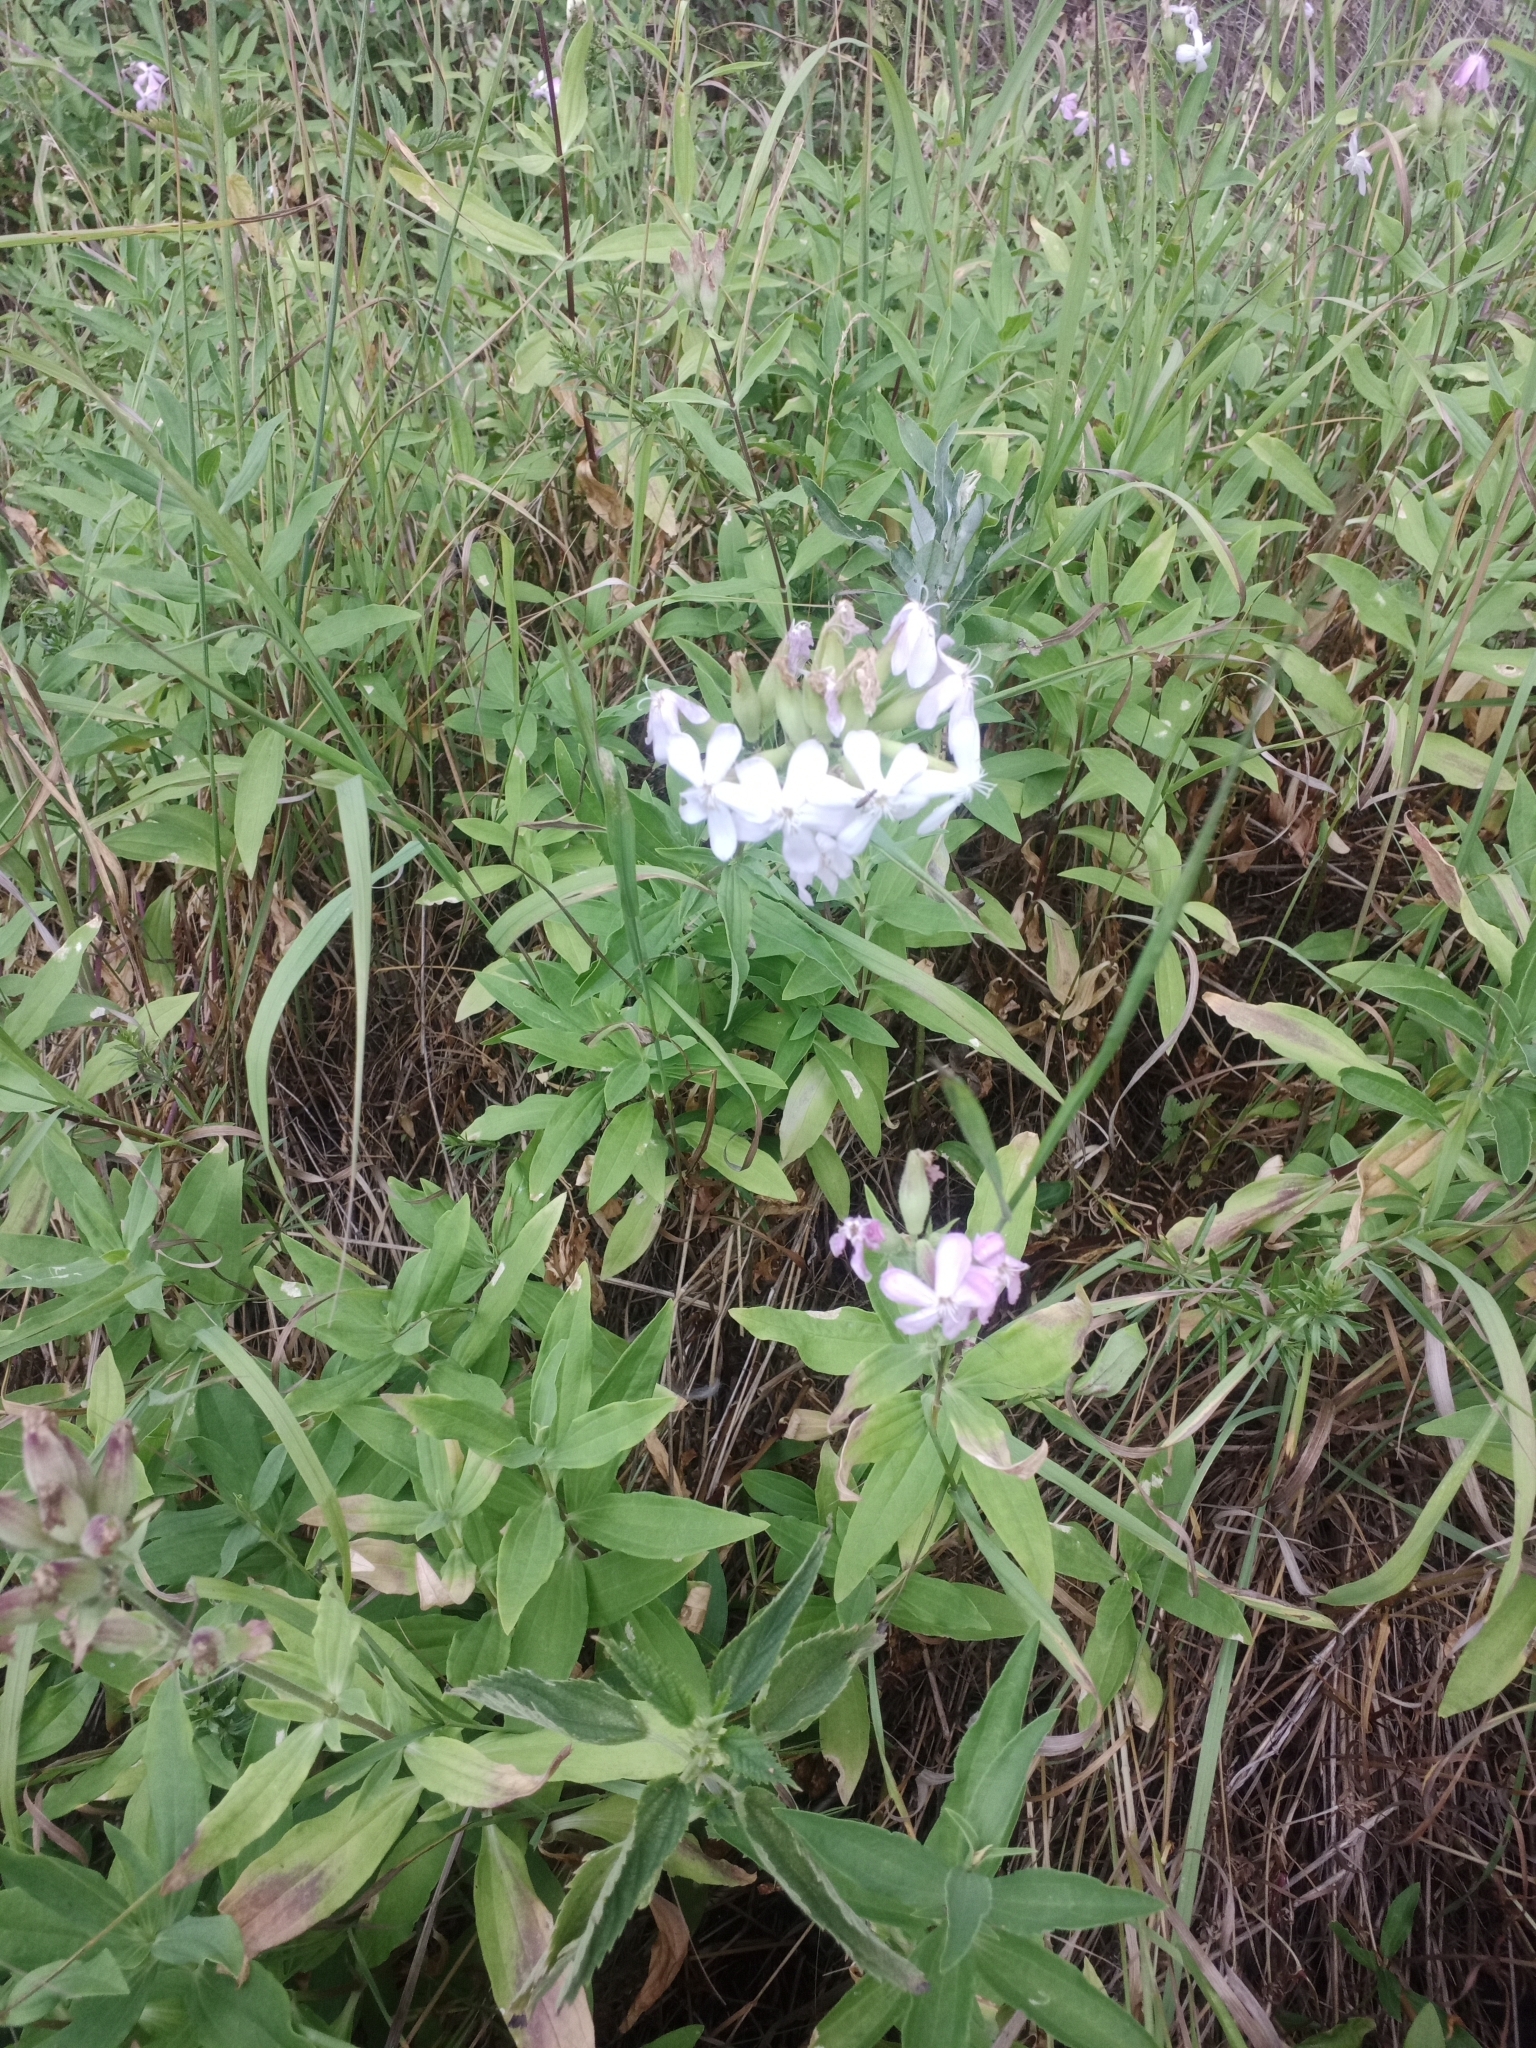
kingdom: Plantae
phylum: Tracheophyta
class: Magnoliopsida
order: Caryophyllales
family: Caryophyllaceae
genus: Saponaria
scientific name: Saponaria officinalis
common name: Soapwort
